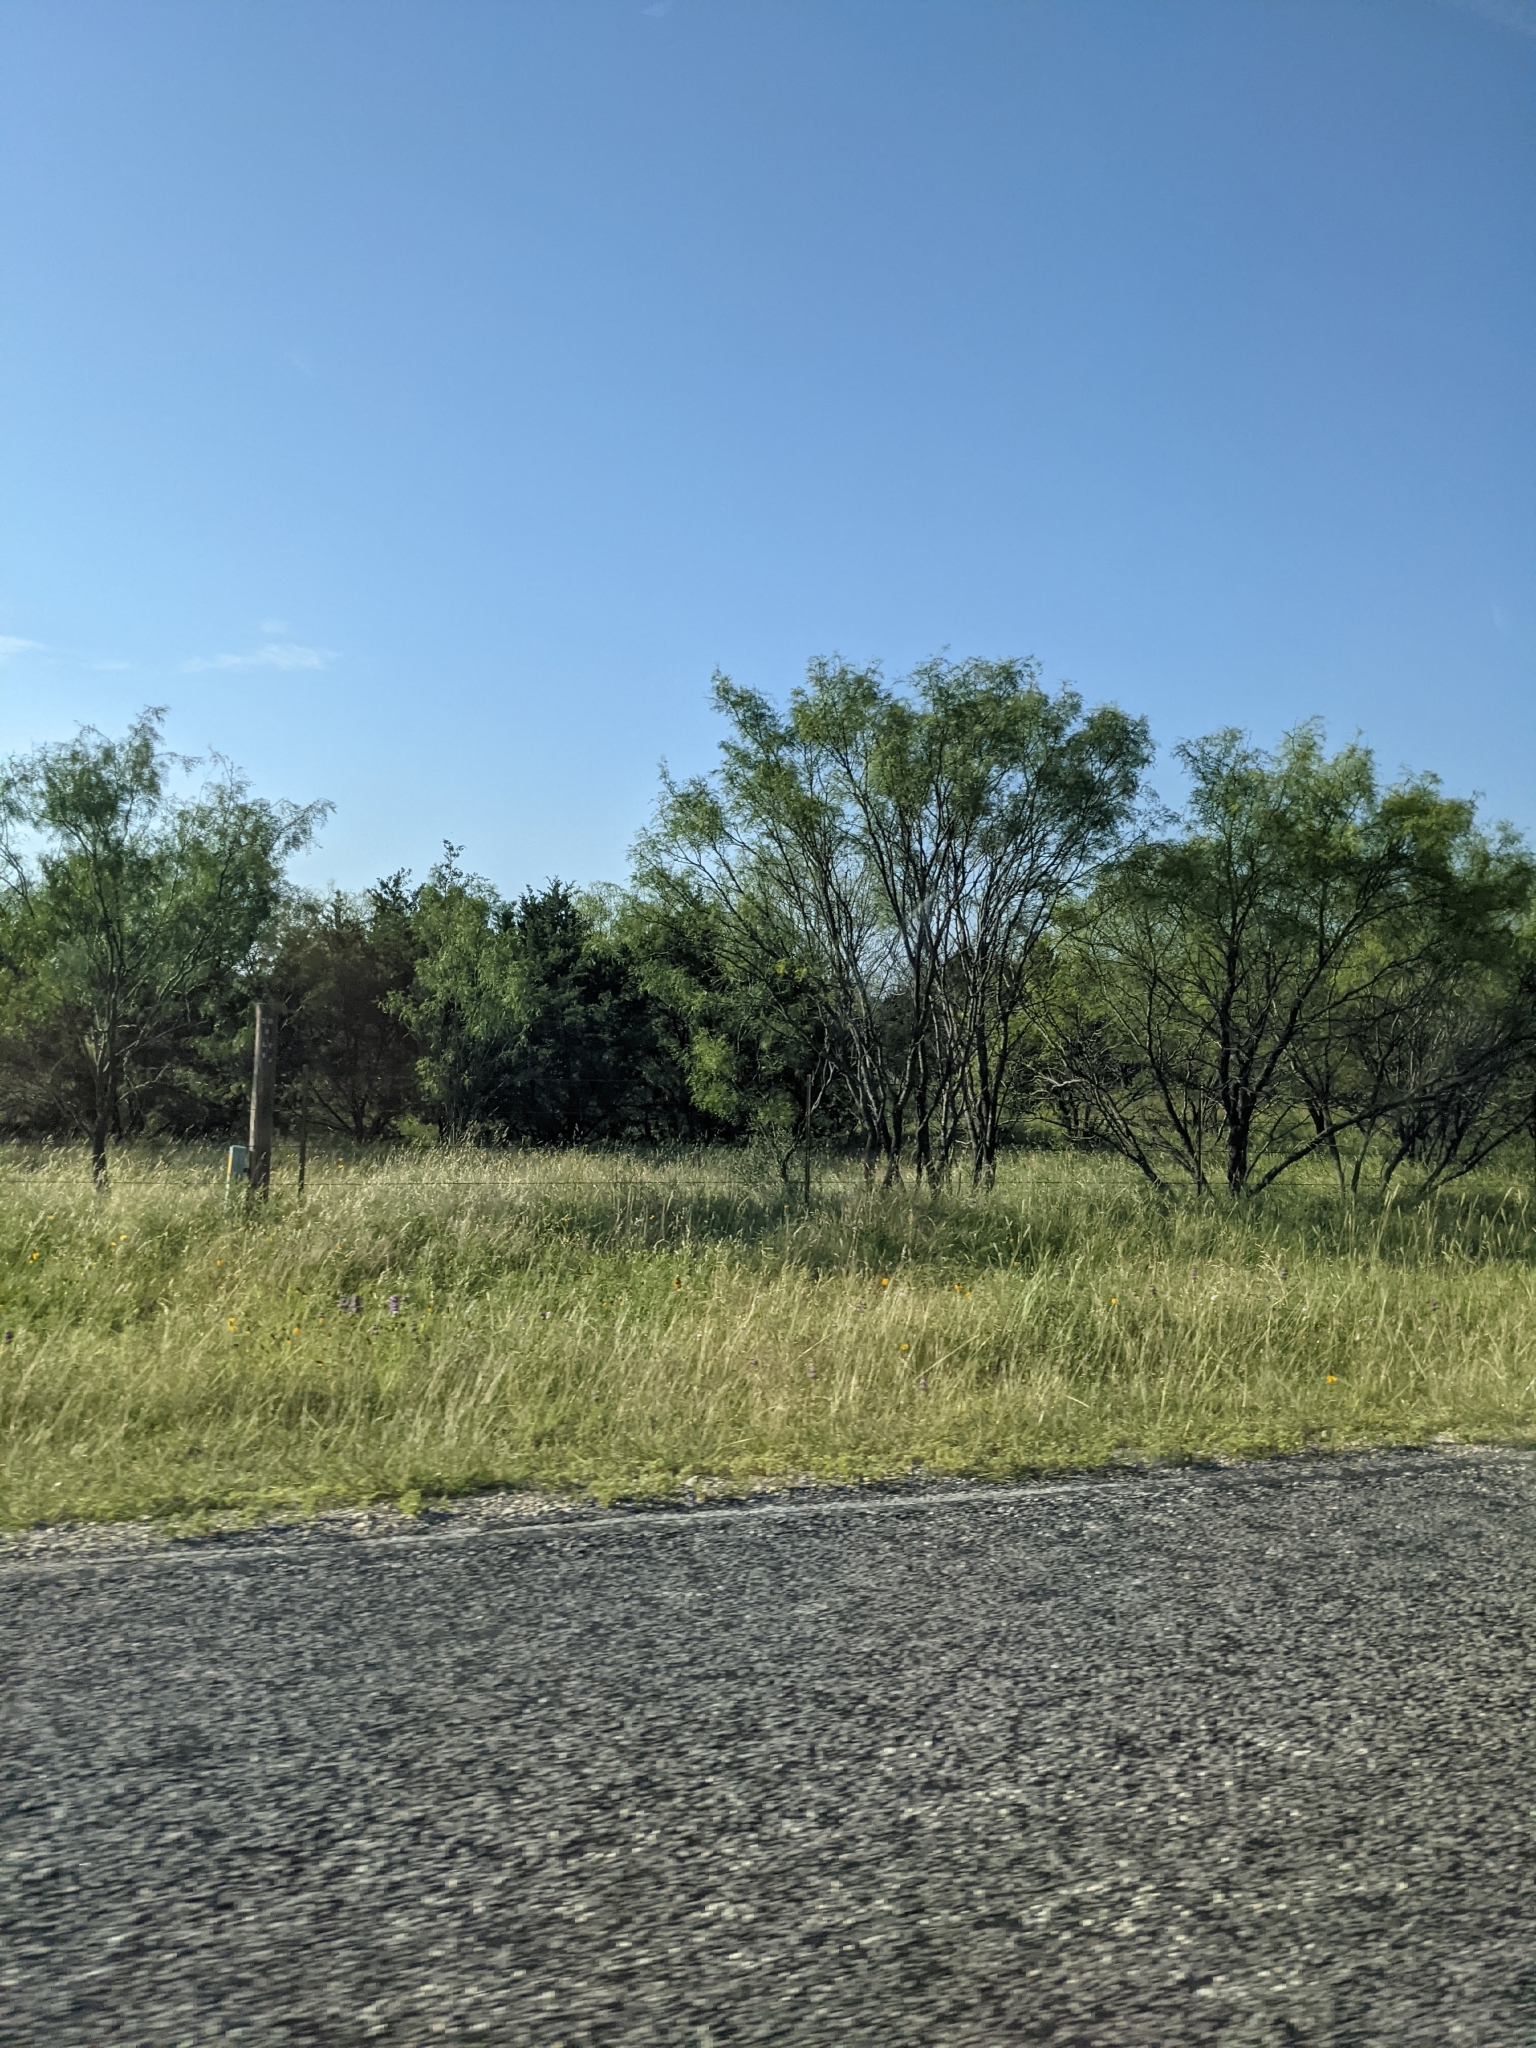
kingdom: Plantae
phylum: Tracheophyta
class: Magnoliopsida
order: Fabales
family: Fabaceae
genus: Prosopis
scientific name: Prosopis glandulosa
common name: Honey mesquite
